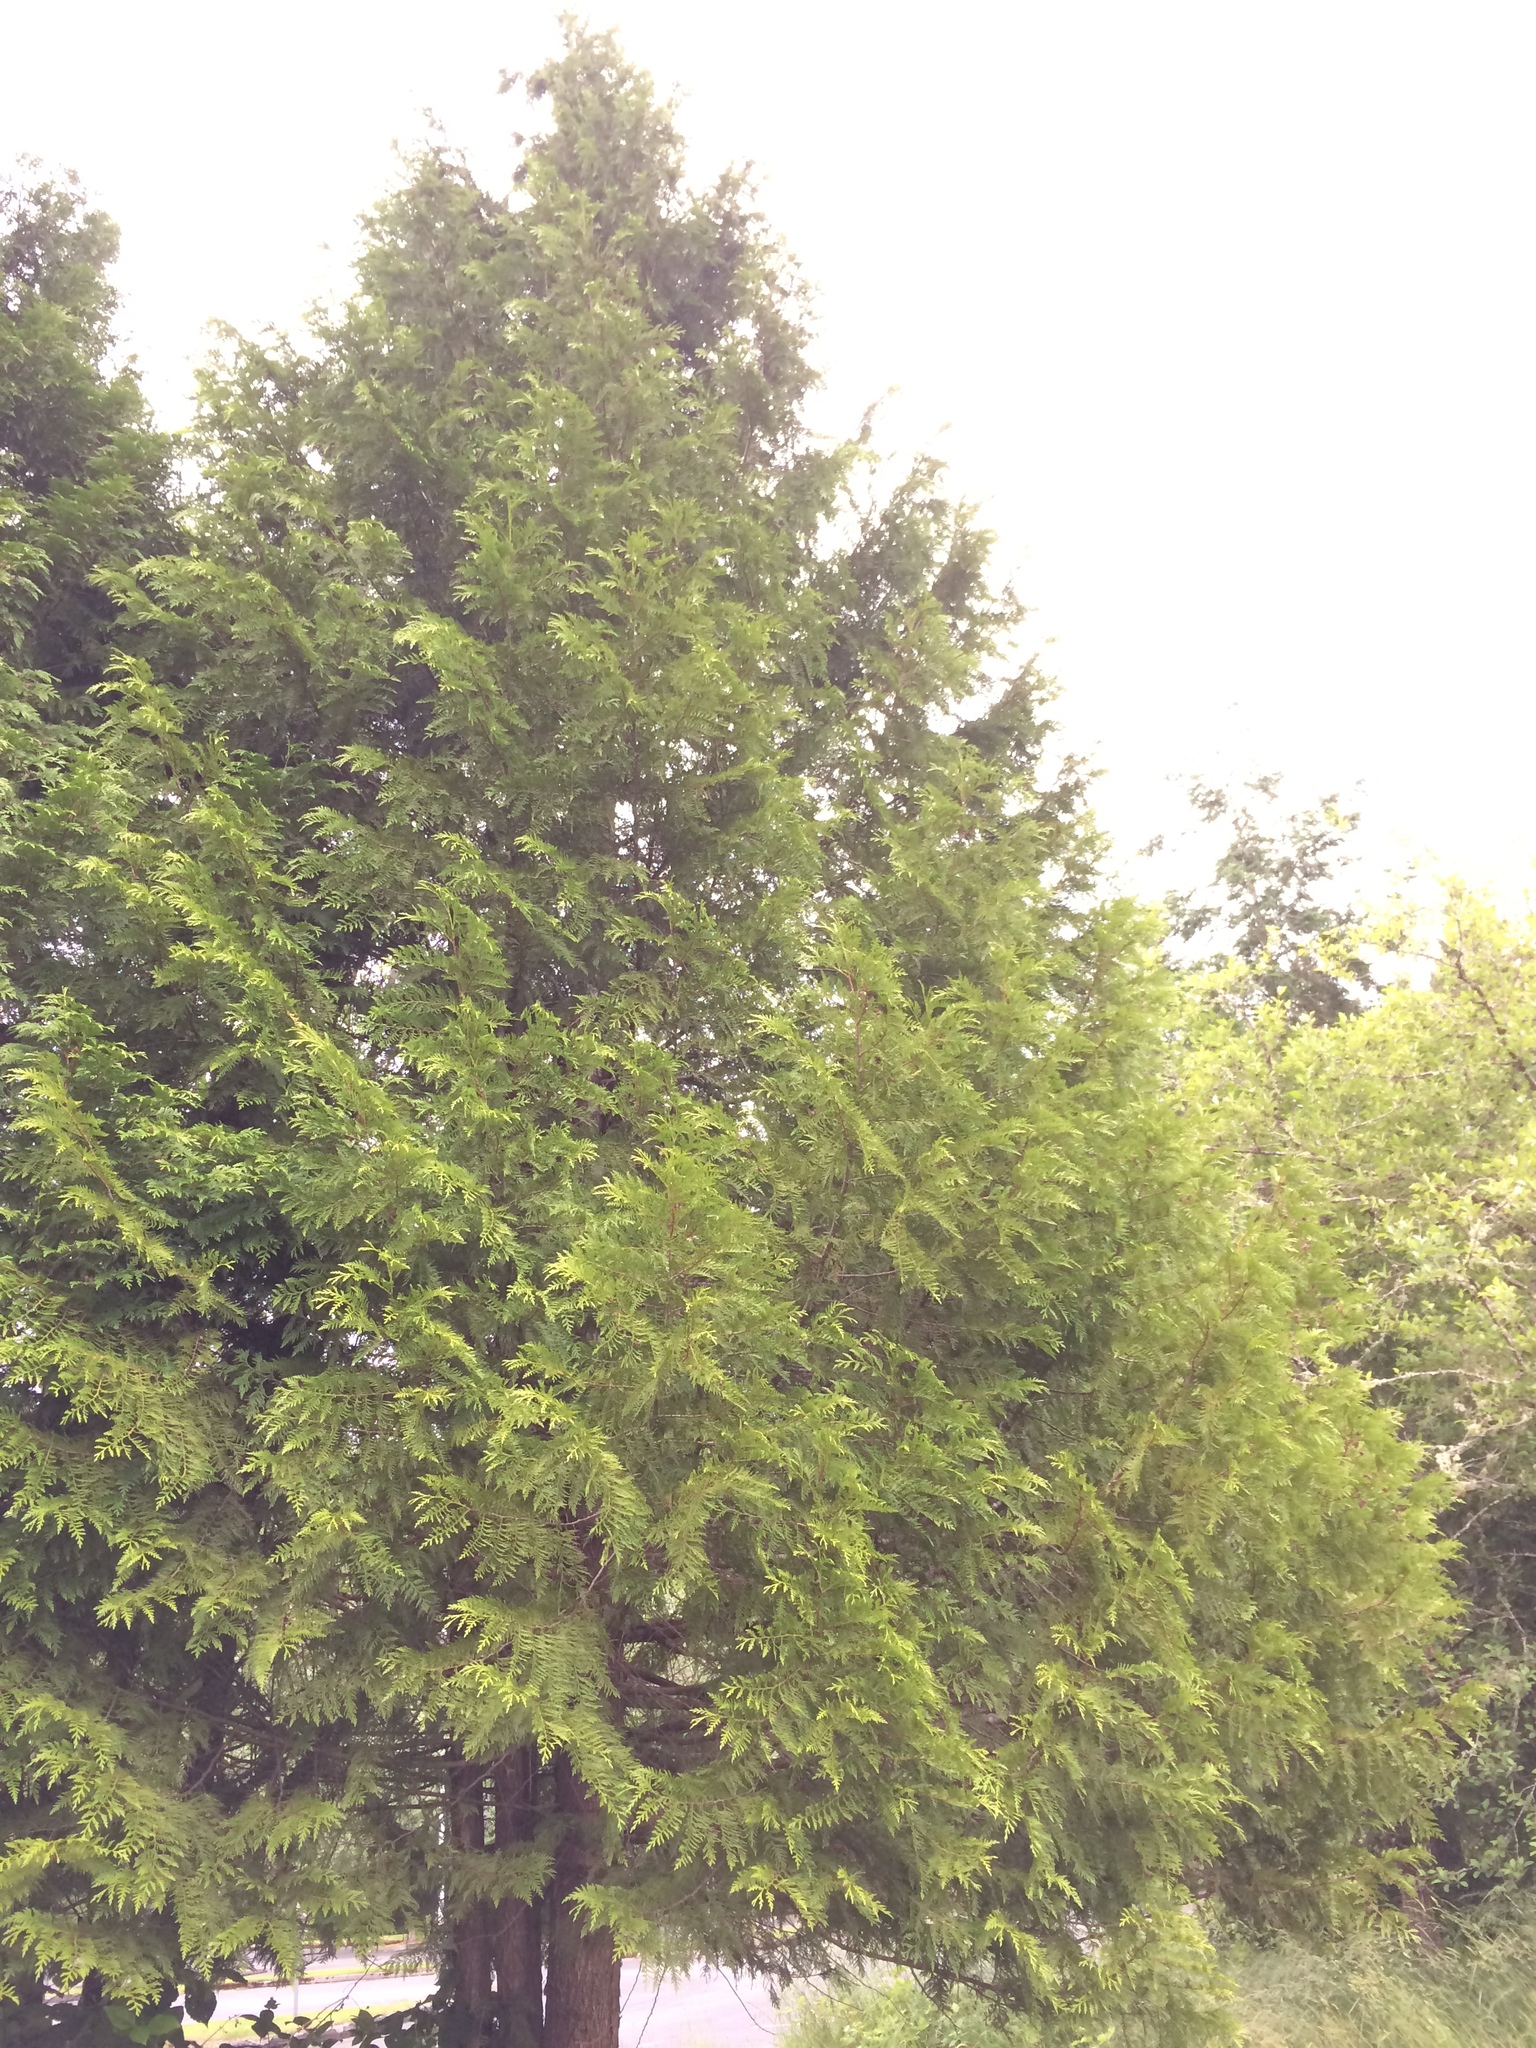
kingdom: Plantae
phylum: Tracheophyta
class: Pinopsida
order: Pinales
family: Cupressaceae
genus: Thuja
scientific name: Thuja plicata
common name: Western red-cedar
